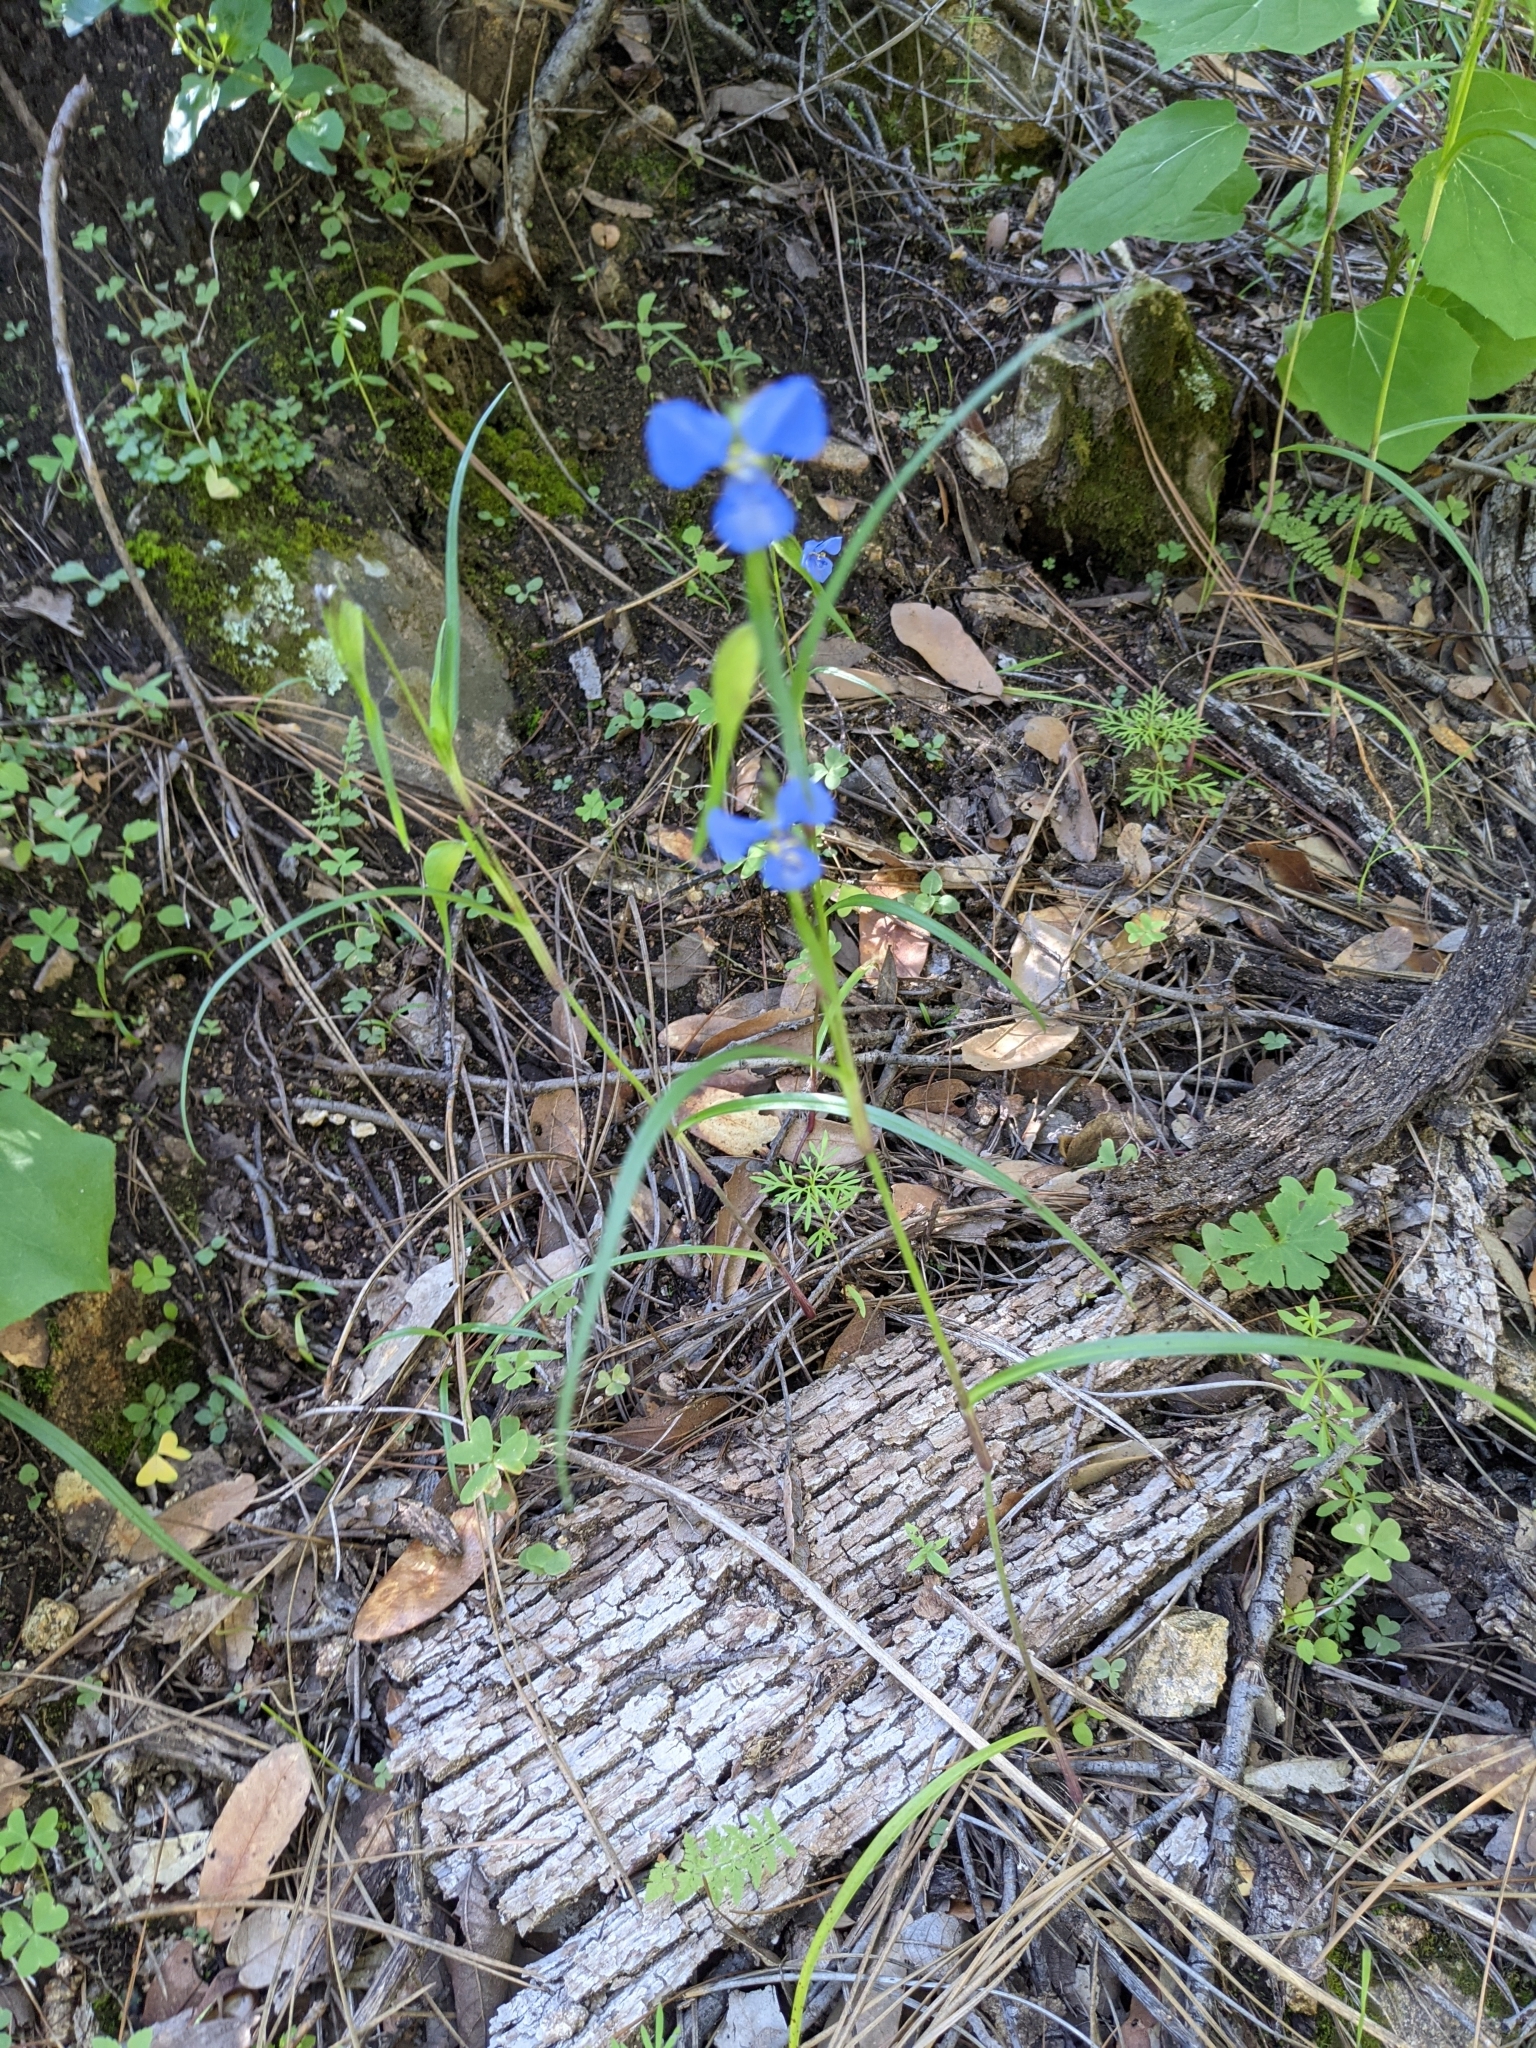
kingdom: Plantae
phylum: Tracheophyta
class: Liliopsida
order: Commelinales
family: Commelinaceae
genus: Commelina
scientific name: Commelina dianthifolia
